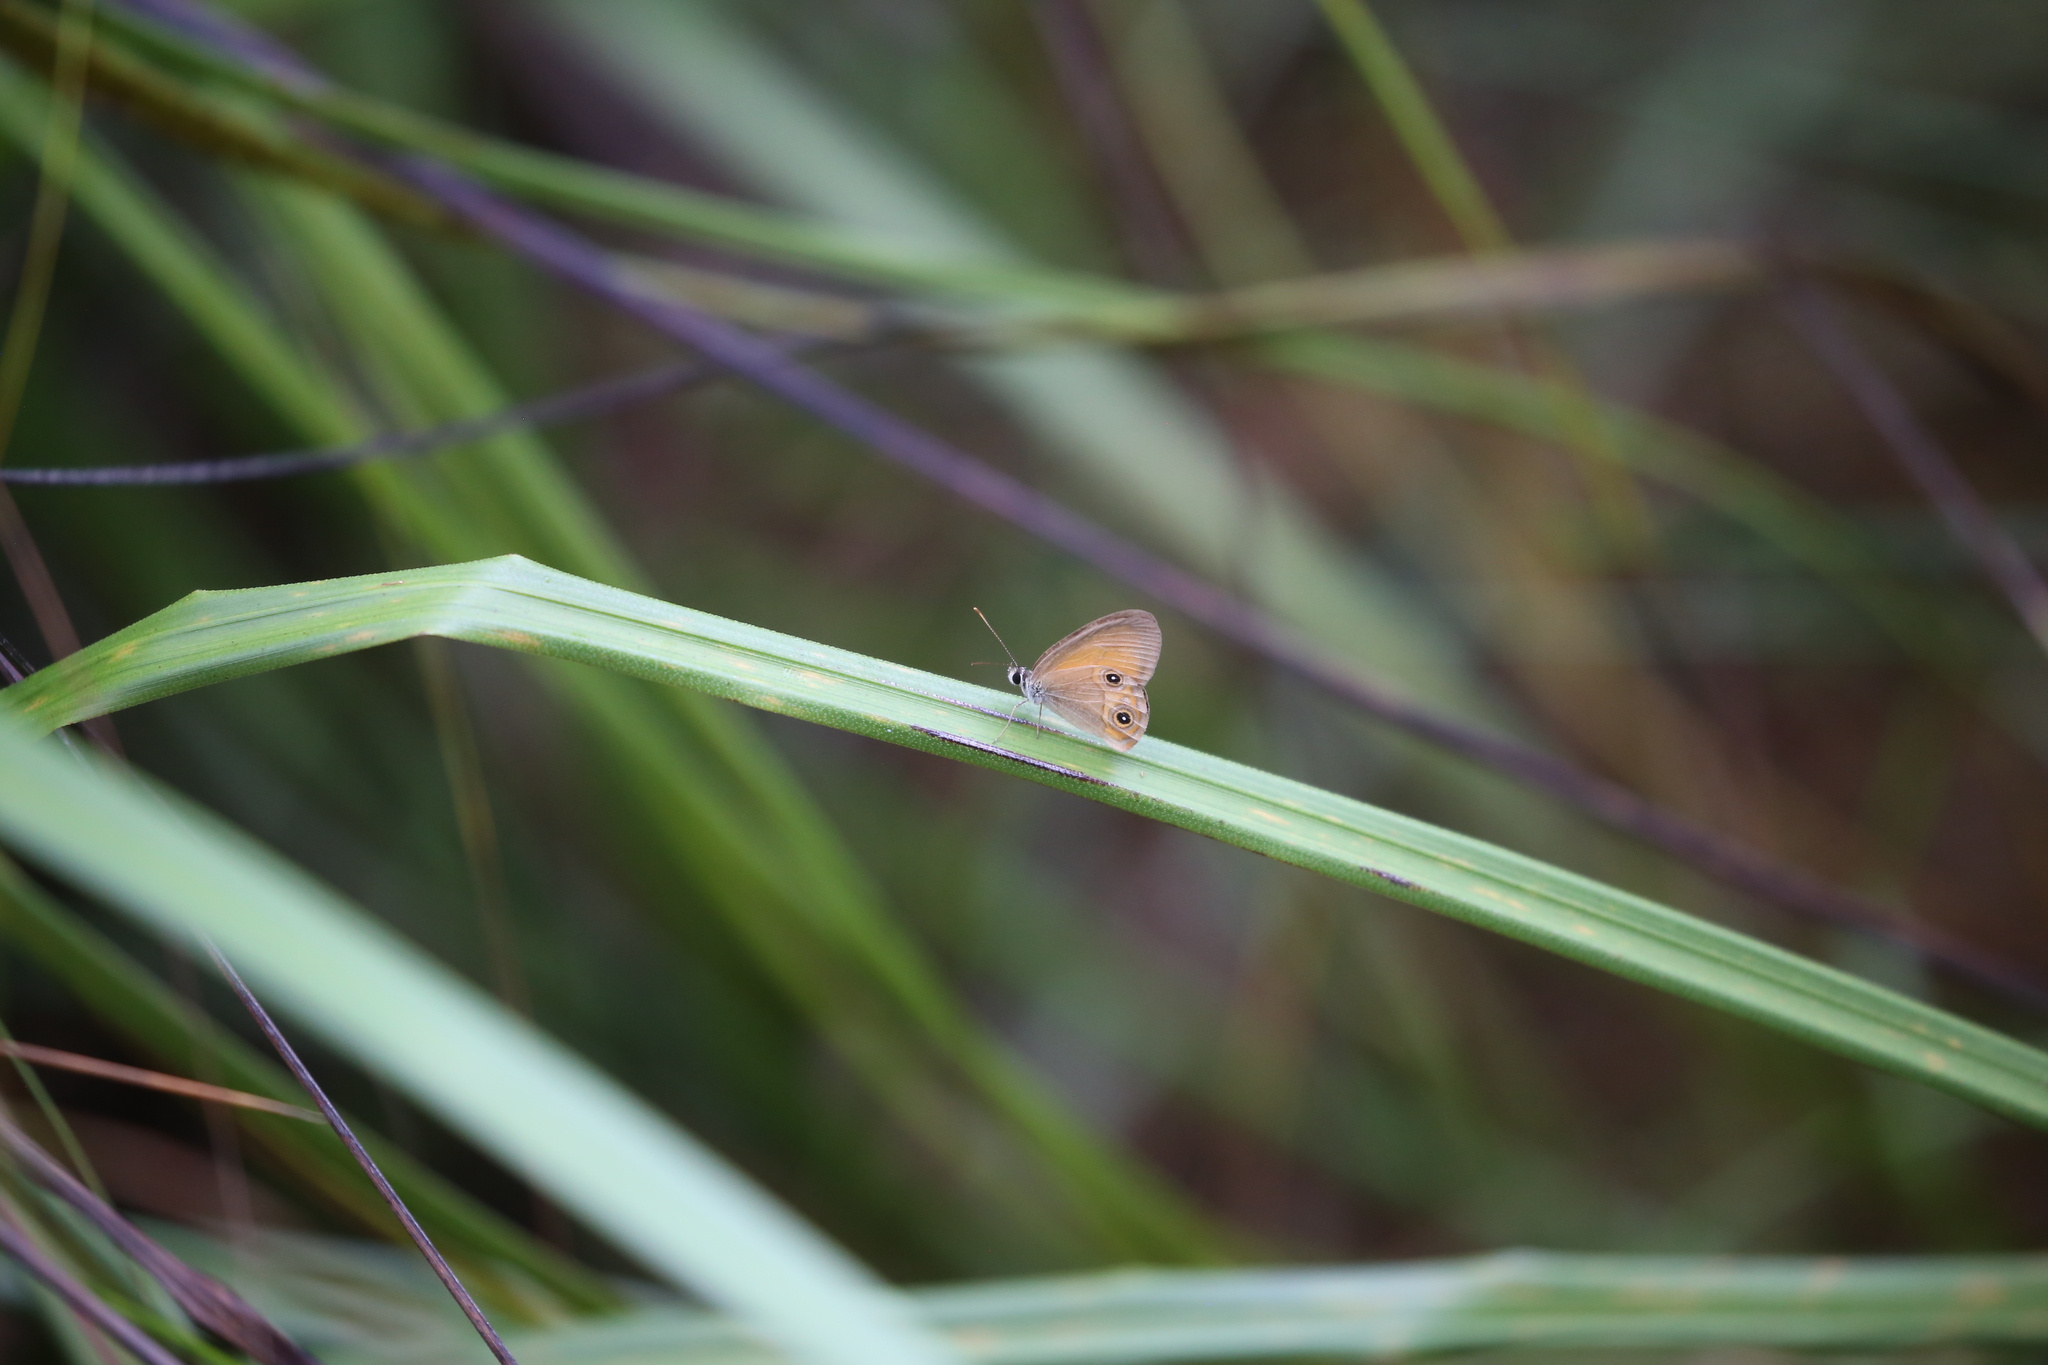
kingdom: Animalia
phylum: Arthropoda
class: Insecta
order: Lepidoptera
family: Nymphalidae
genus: Hypocysta
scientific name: Hypocysta adiante
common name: Orange ringlet
